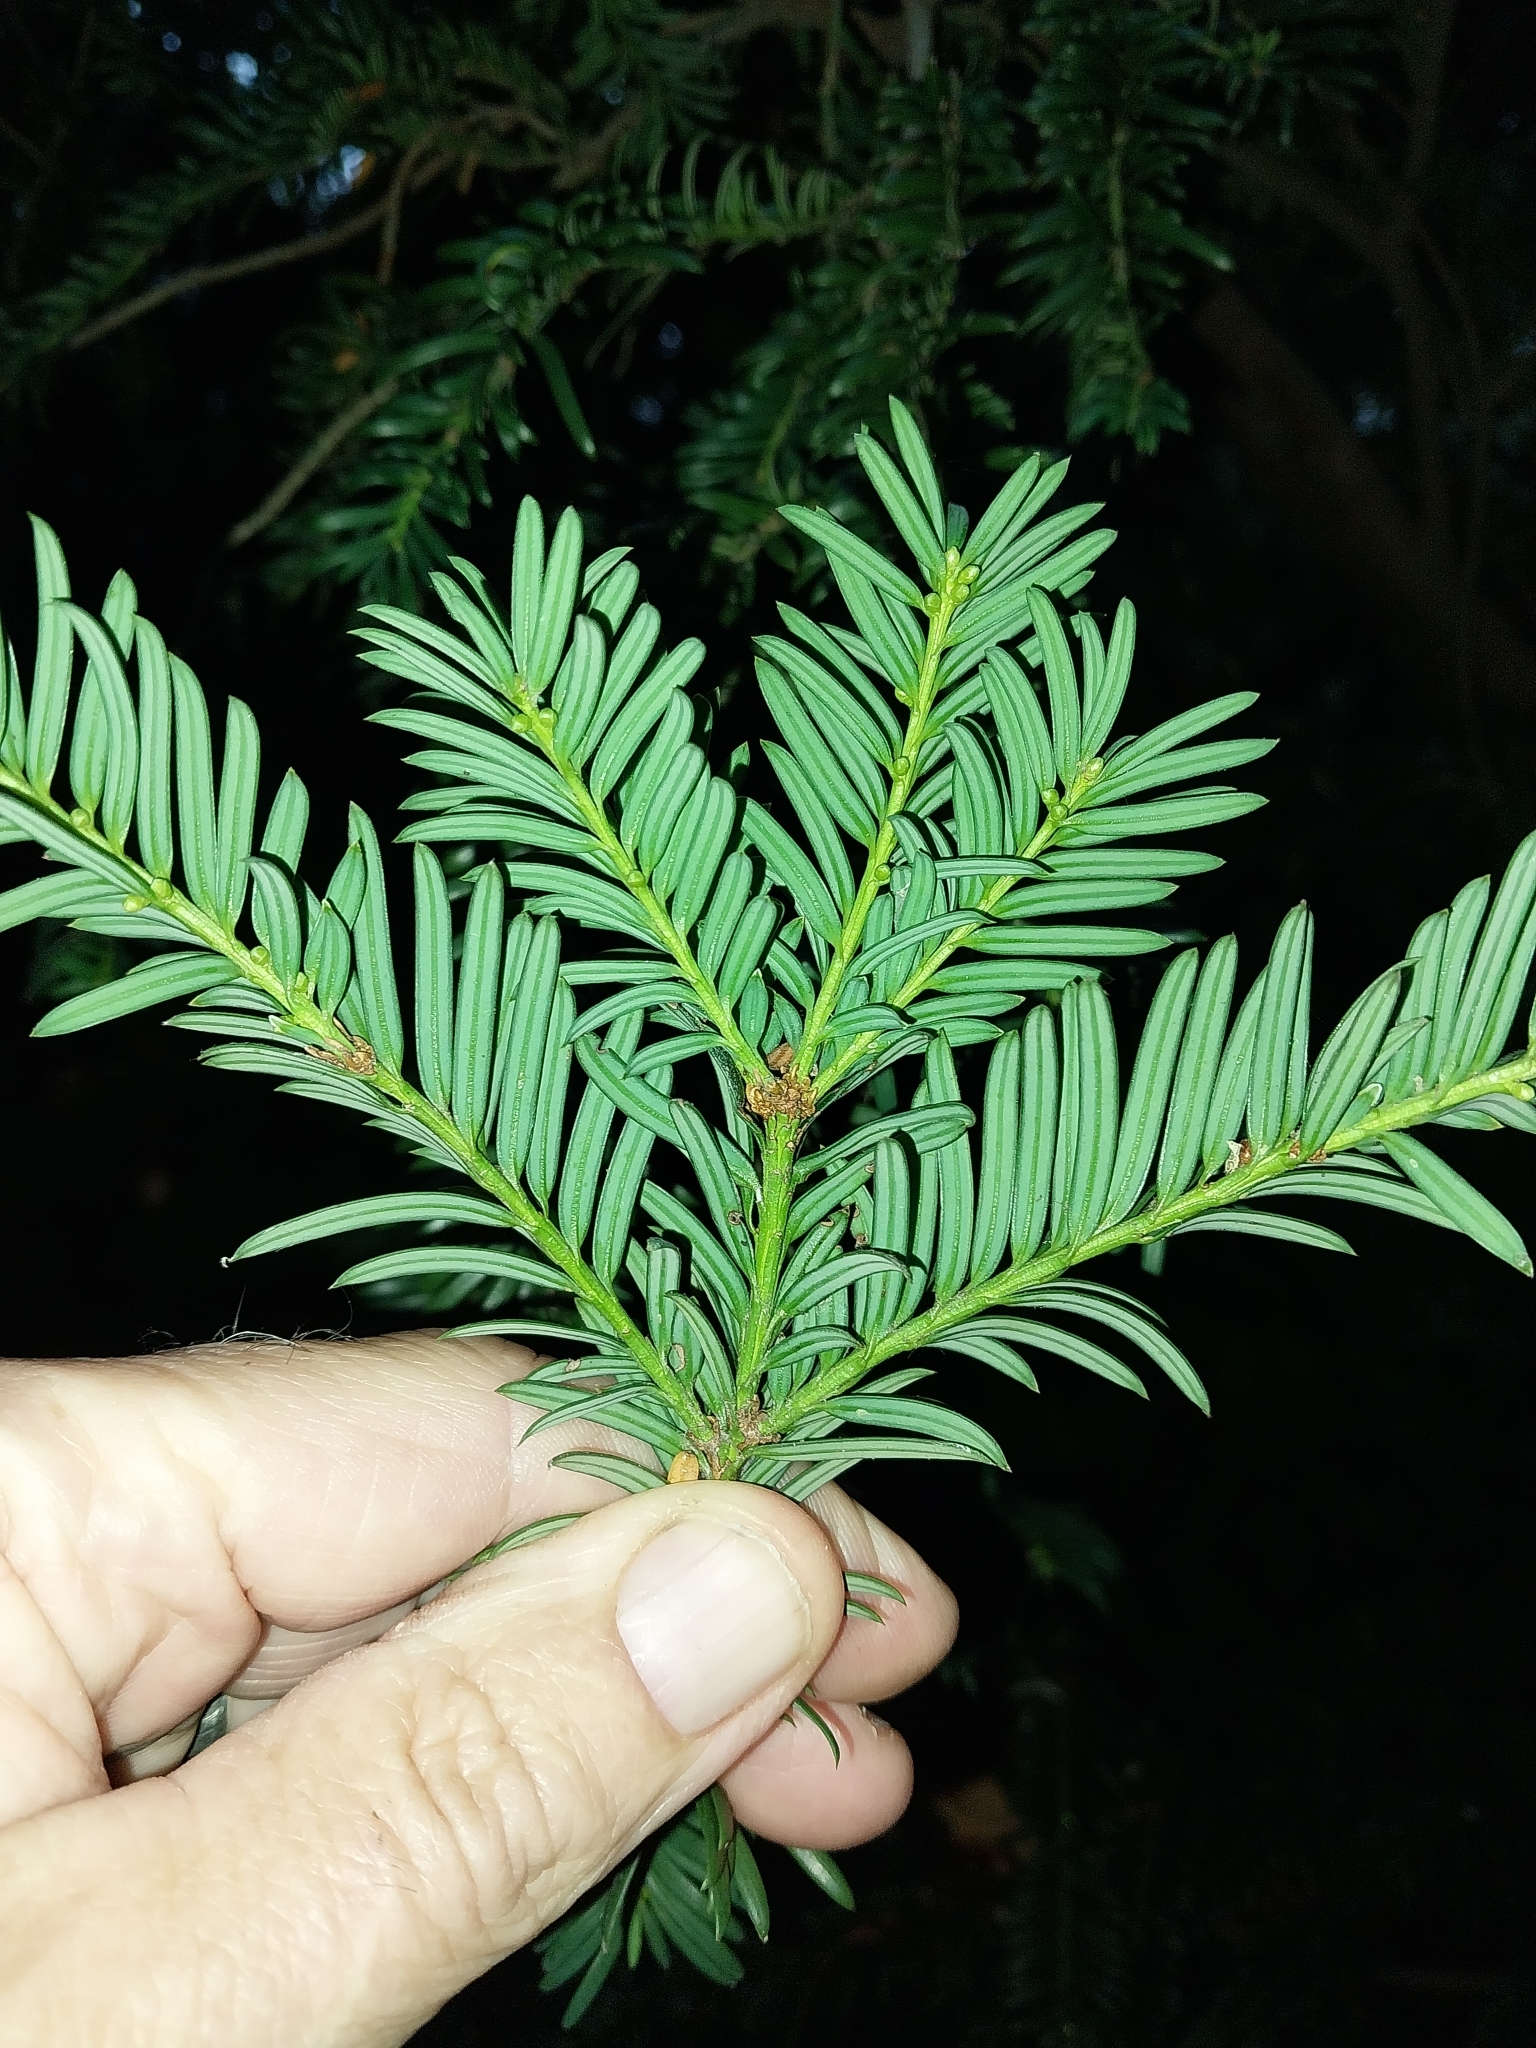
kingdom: Plantae
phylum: Tracheophyta
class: Pinopsida
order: Pinales
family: Taxaceae
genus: Taxus
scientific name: Taxus baccata
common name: Yew
